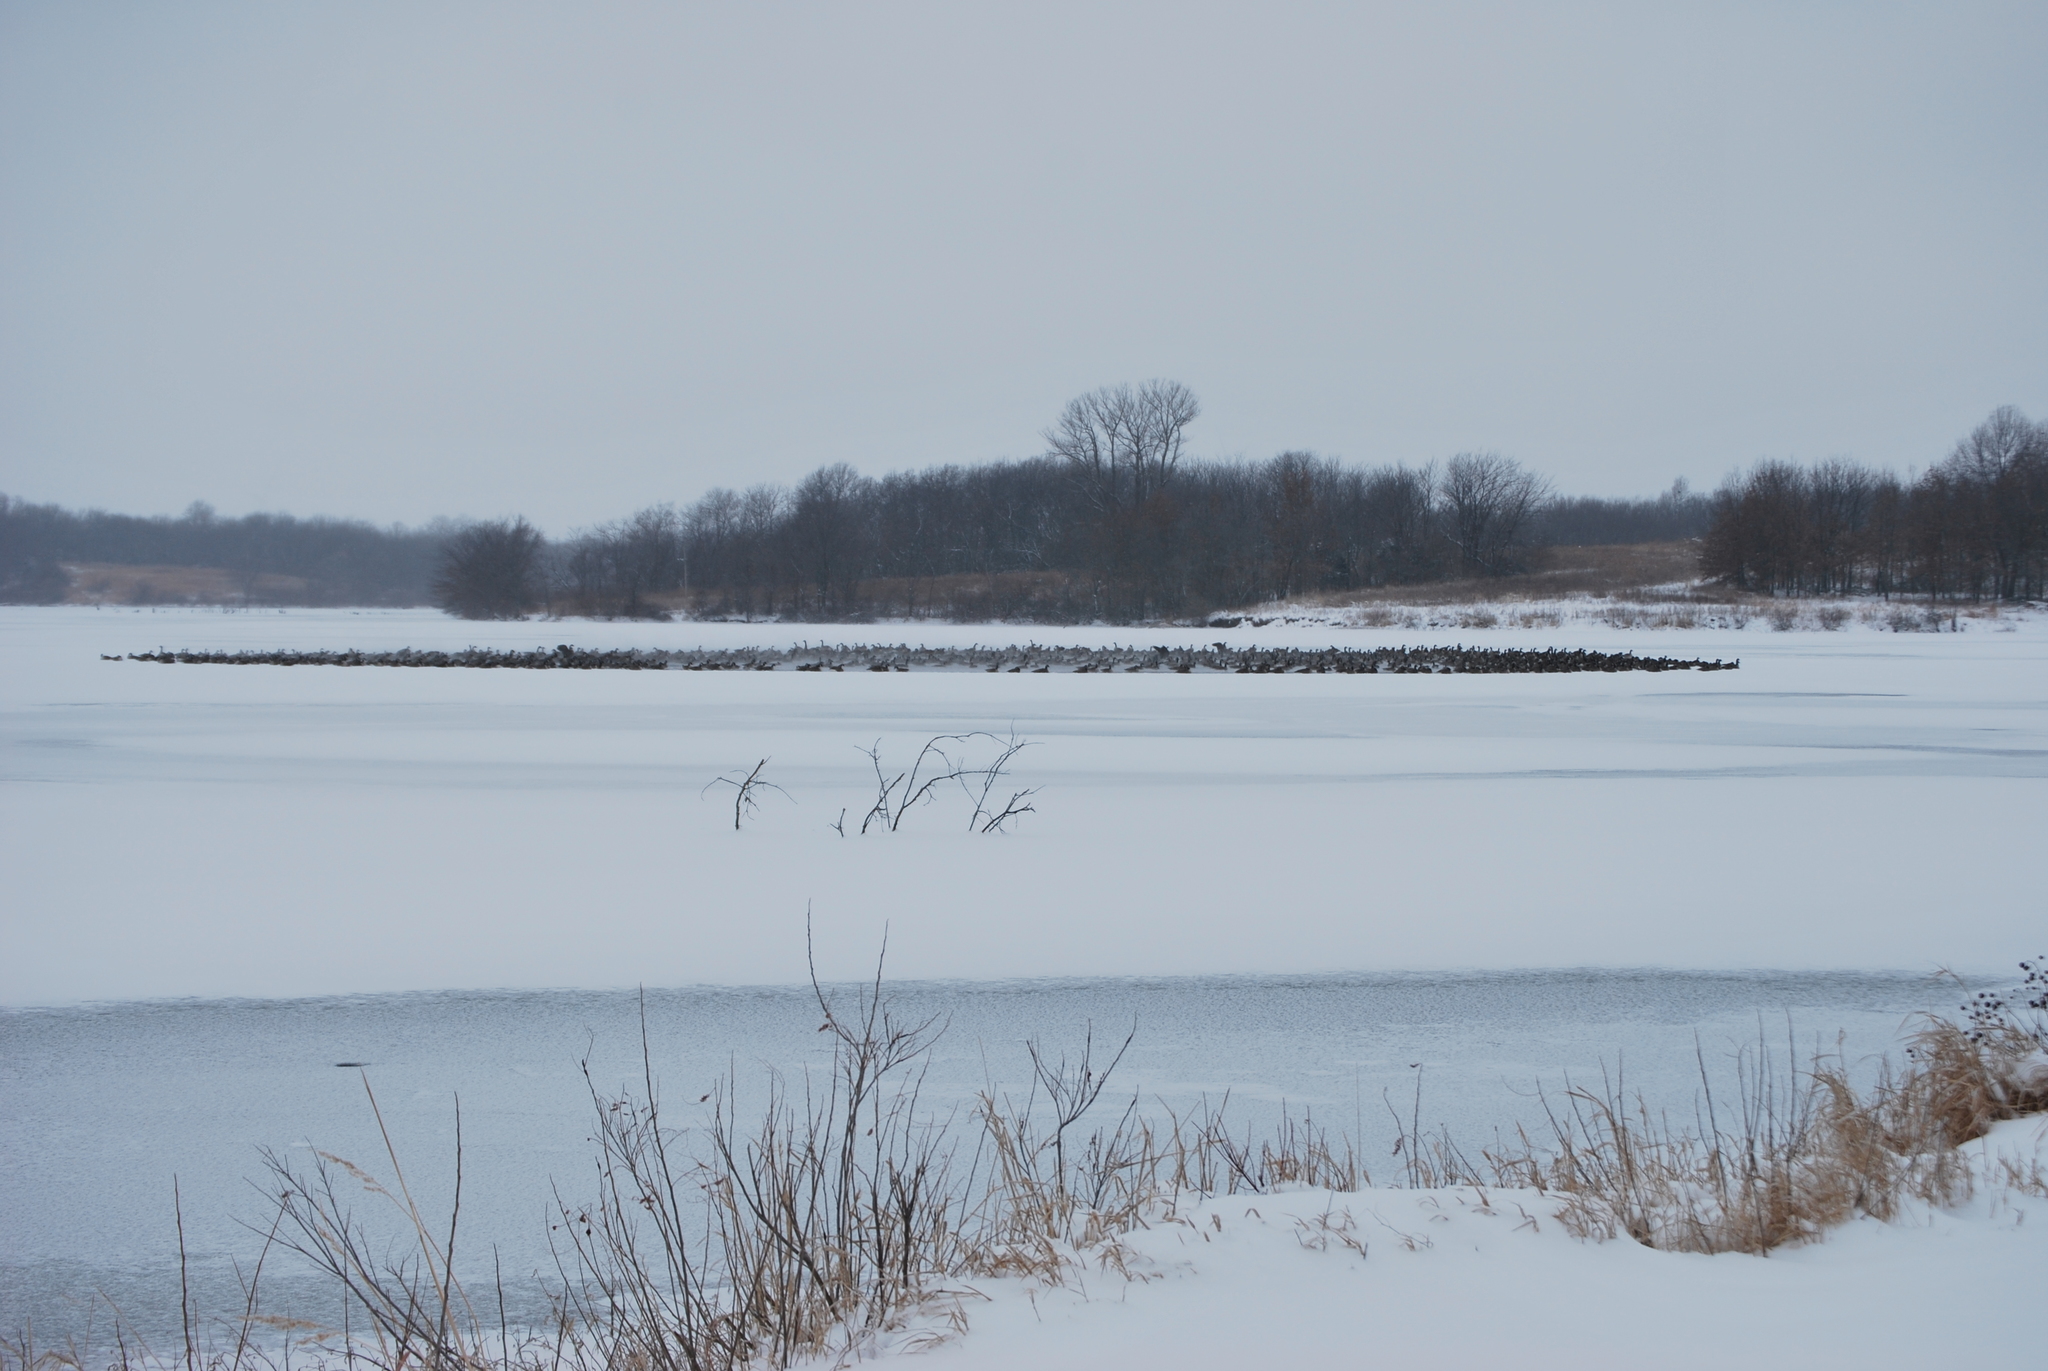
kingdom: Animalia
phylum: Chordata
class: Aves
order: Anseriformes
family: Anatidae
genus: Branta
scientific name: Branta canadensis
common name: Canada goose
